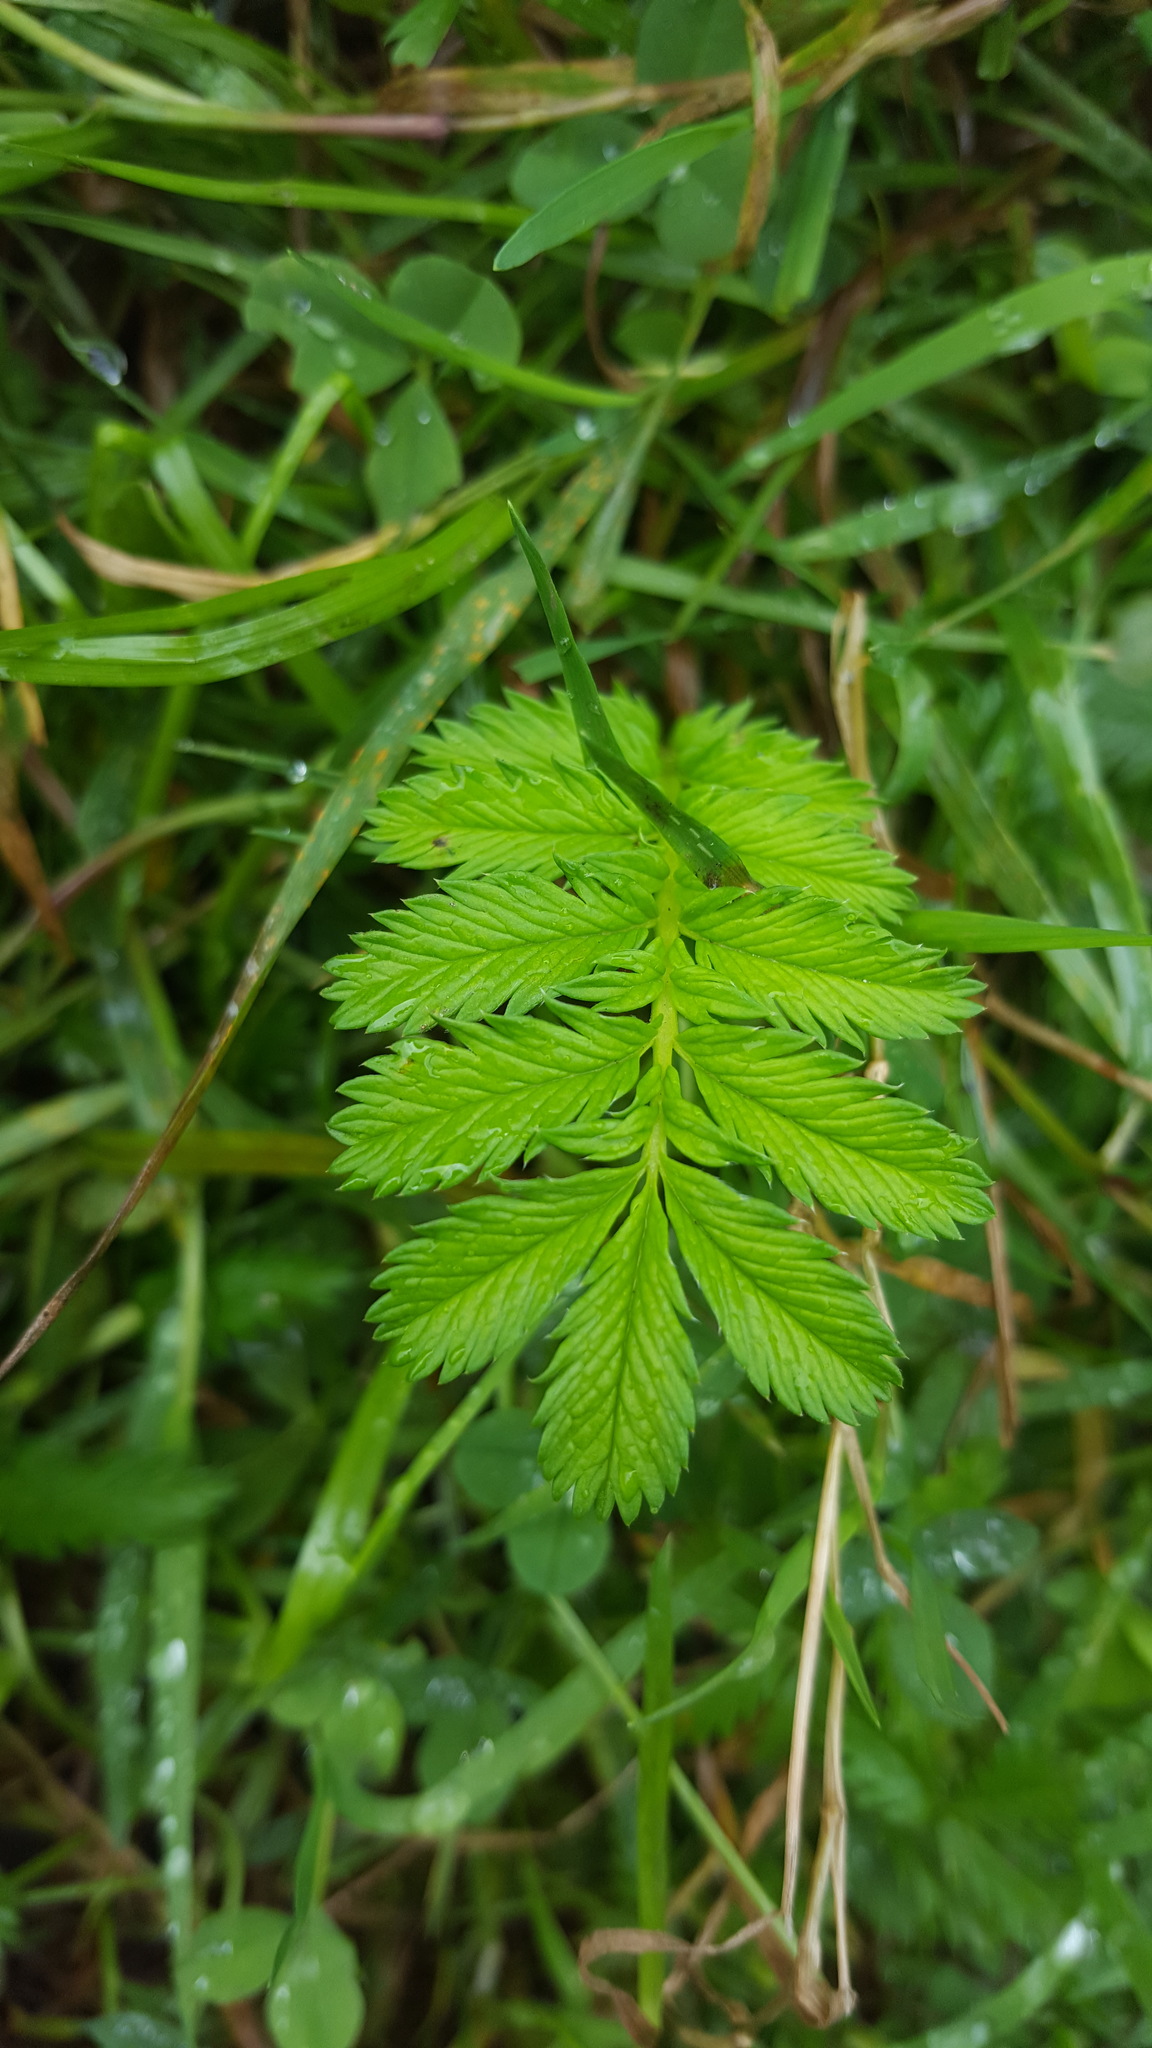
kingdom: Plantae
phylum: Tracheophyta
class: Magnoliopsida
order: Rosales
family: Rosaceae
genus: Argentina
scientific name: Argentina anserina
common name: Common silverweed
